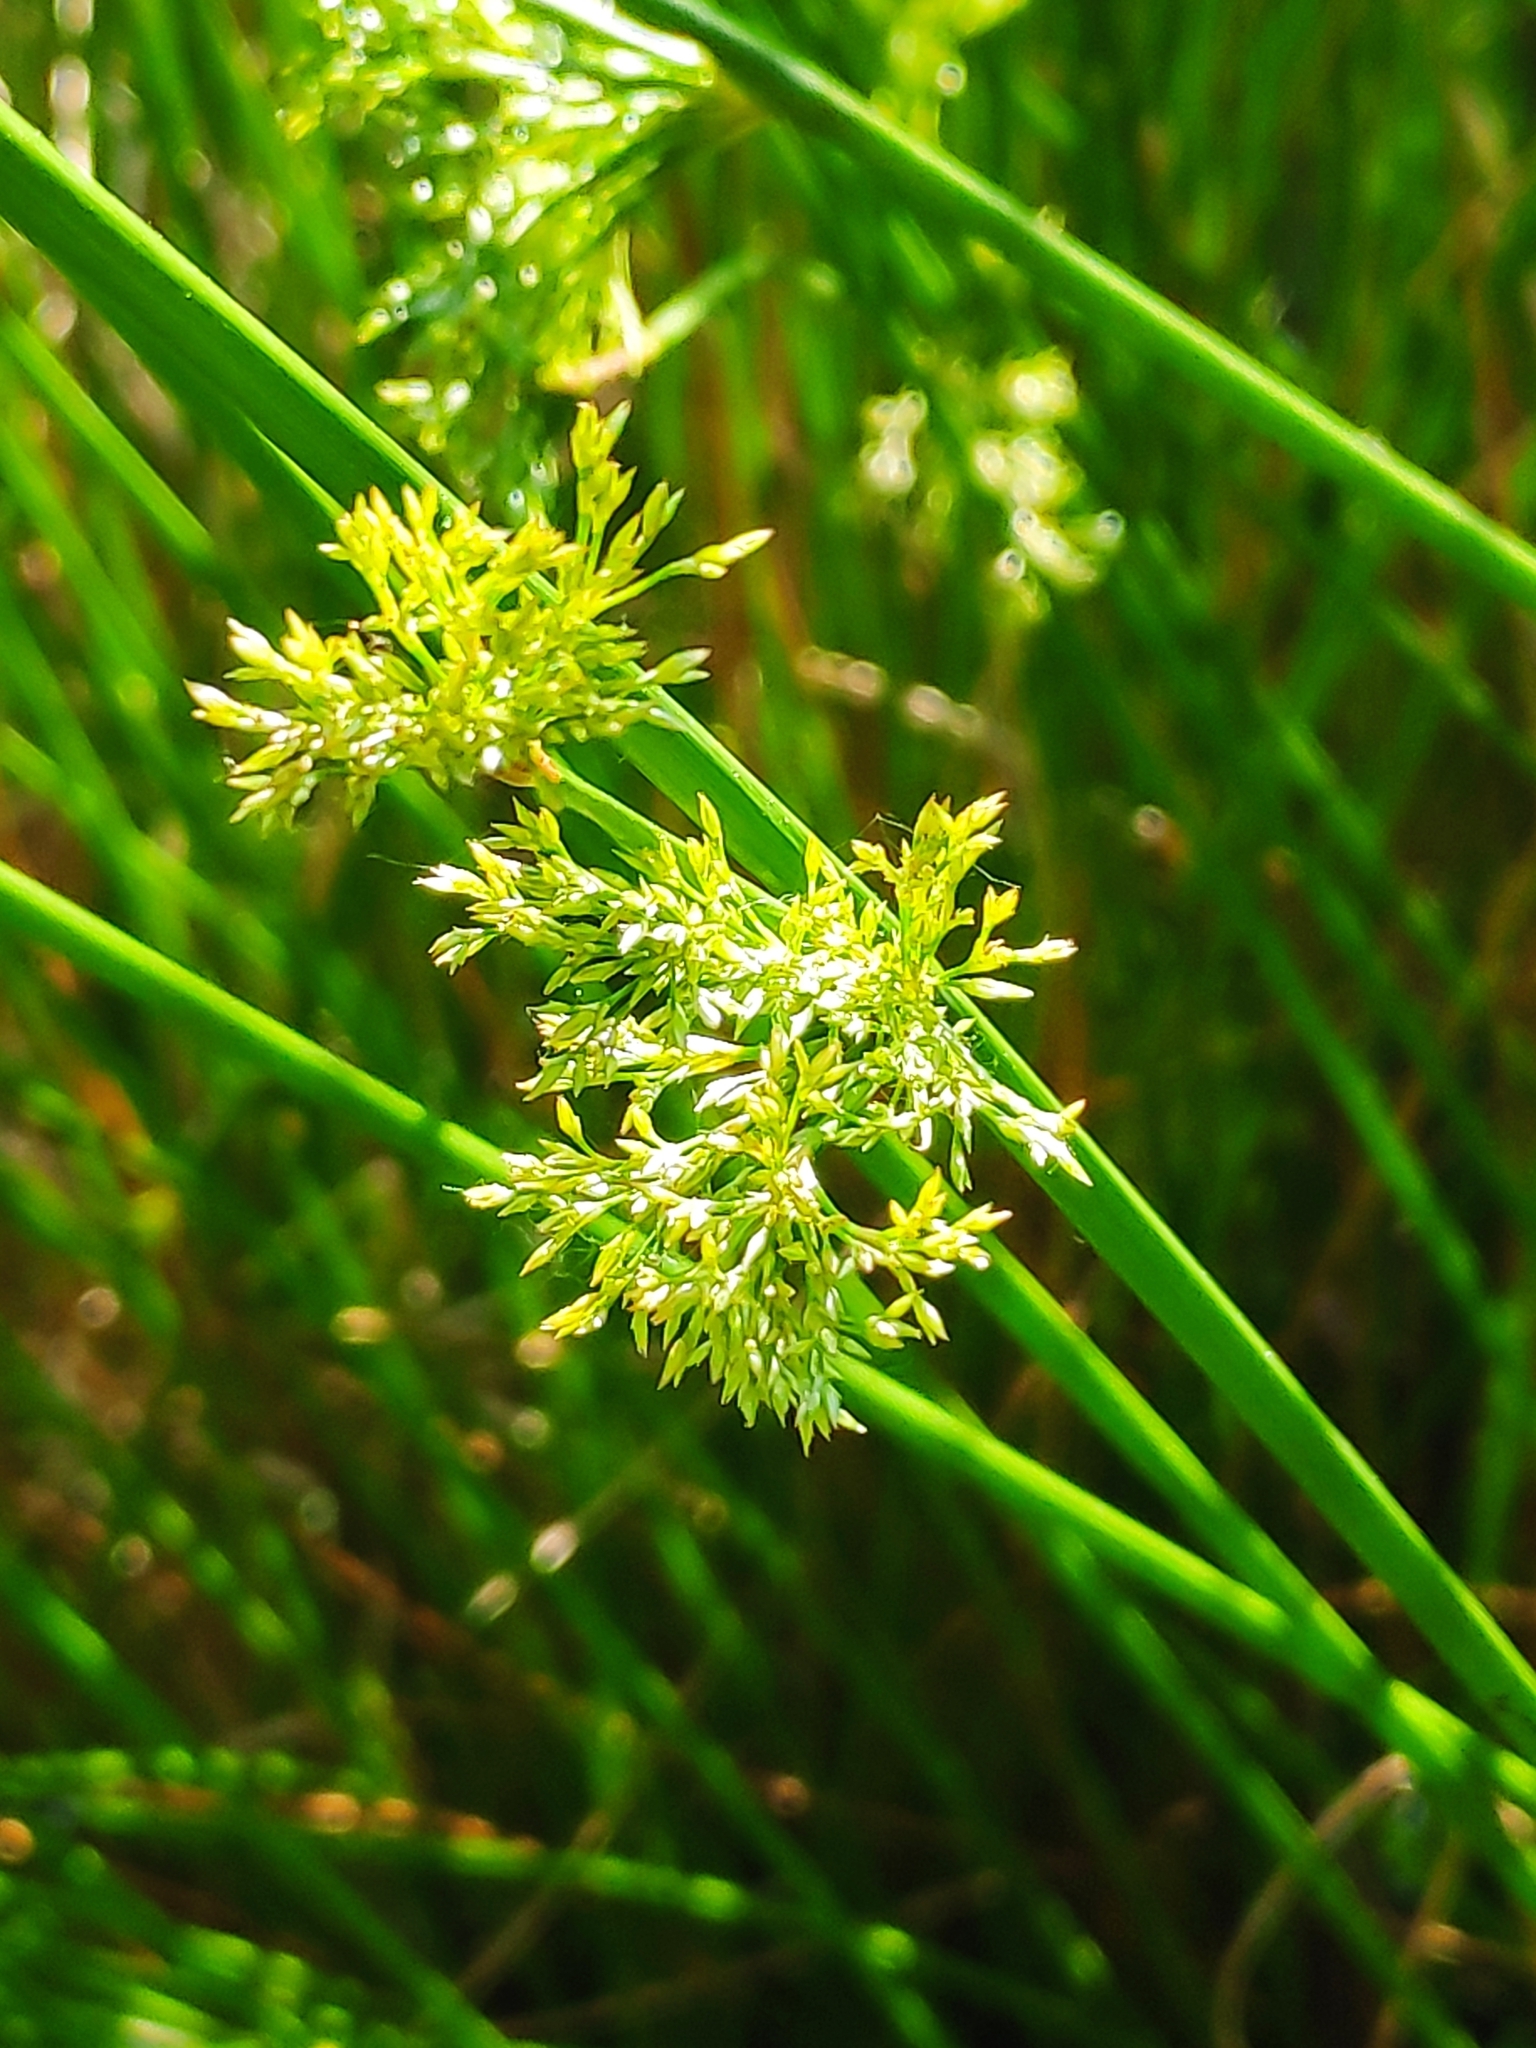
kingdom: Plantae
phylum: Tracheophyta
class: Liliopsida
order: Poales
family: Juncaceae
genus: Juncus
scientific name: Juncus effusus
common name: Soft rush
